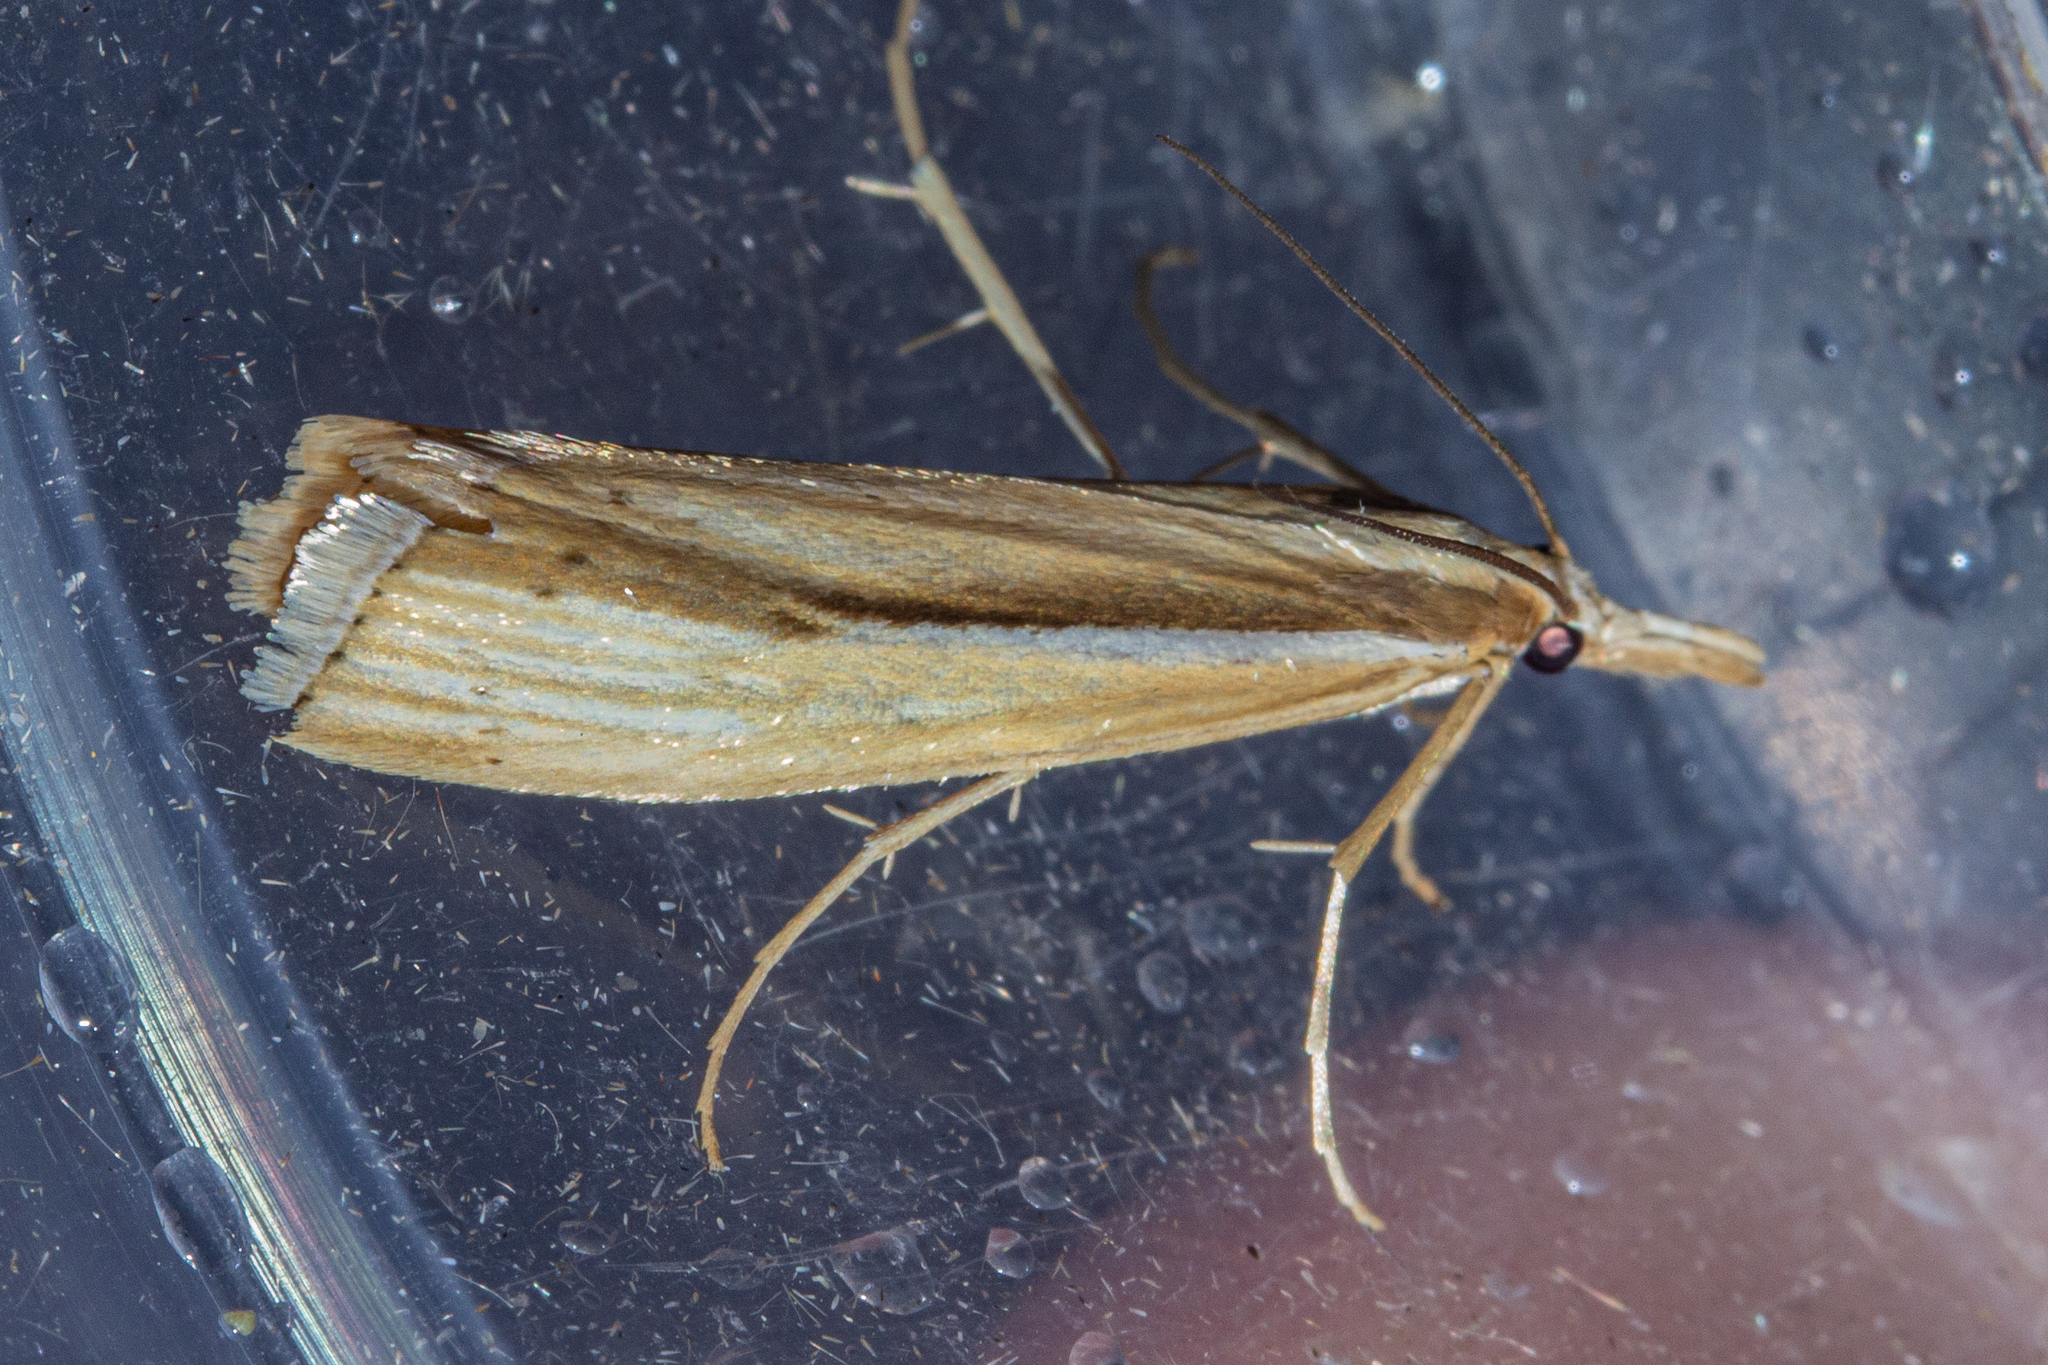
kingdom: Animalia
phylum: Arthropoda
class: Insecta
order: Lepidoptera
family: Crambidae
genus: Orocrambus
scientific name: Orocrambus ramosellus
